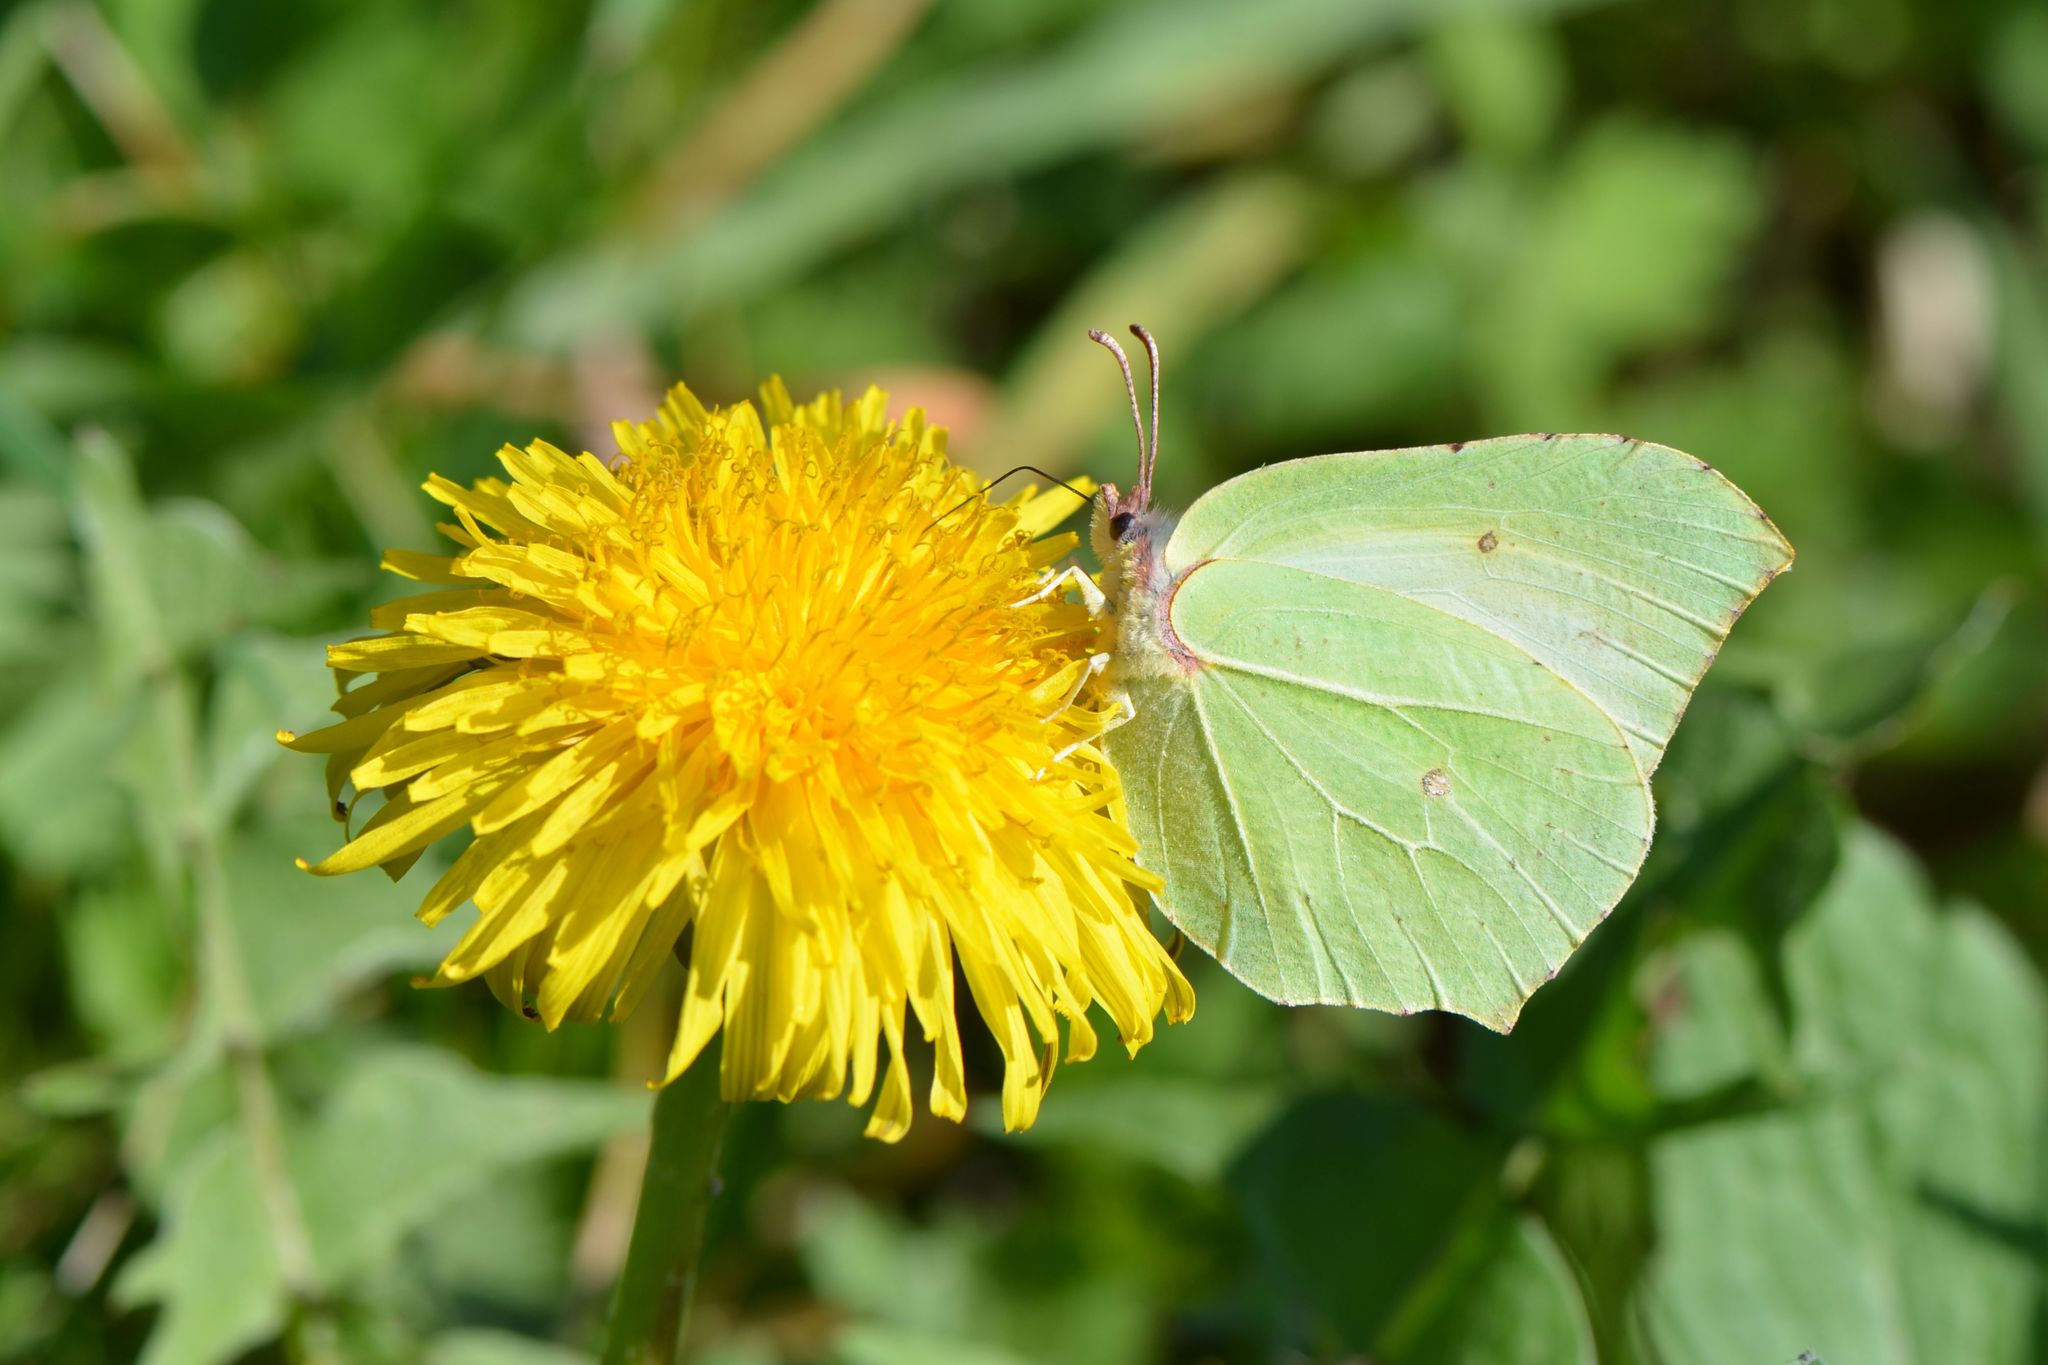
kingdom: Animalia
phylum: Arthropoda
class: Insecta
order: Lepidoptera
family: Pieridae
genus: Gonepteryx
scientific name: Gonepteryx rhamni
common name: Brimstone
